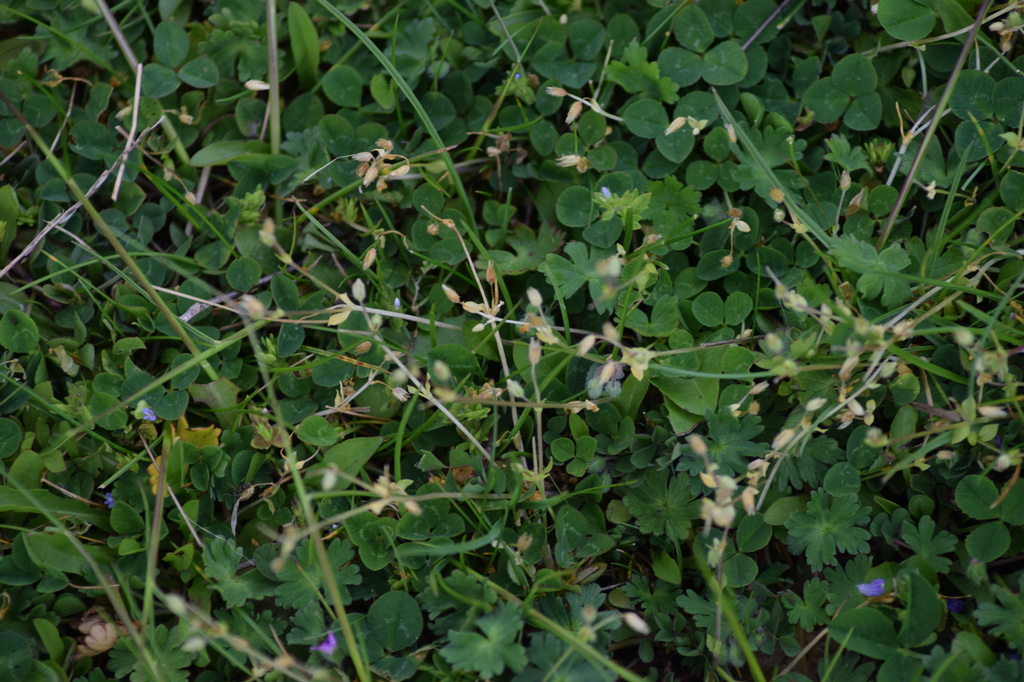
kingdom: Plantae
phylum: Tracheophyta
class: Magnoliopsida
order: Caryophyllales
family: Caryophyllaceae
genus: Stellaria
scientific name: Stellaria apetala
